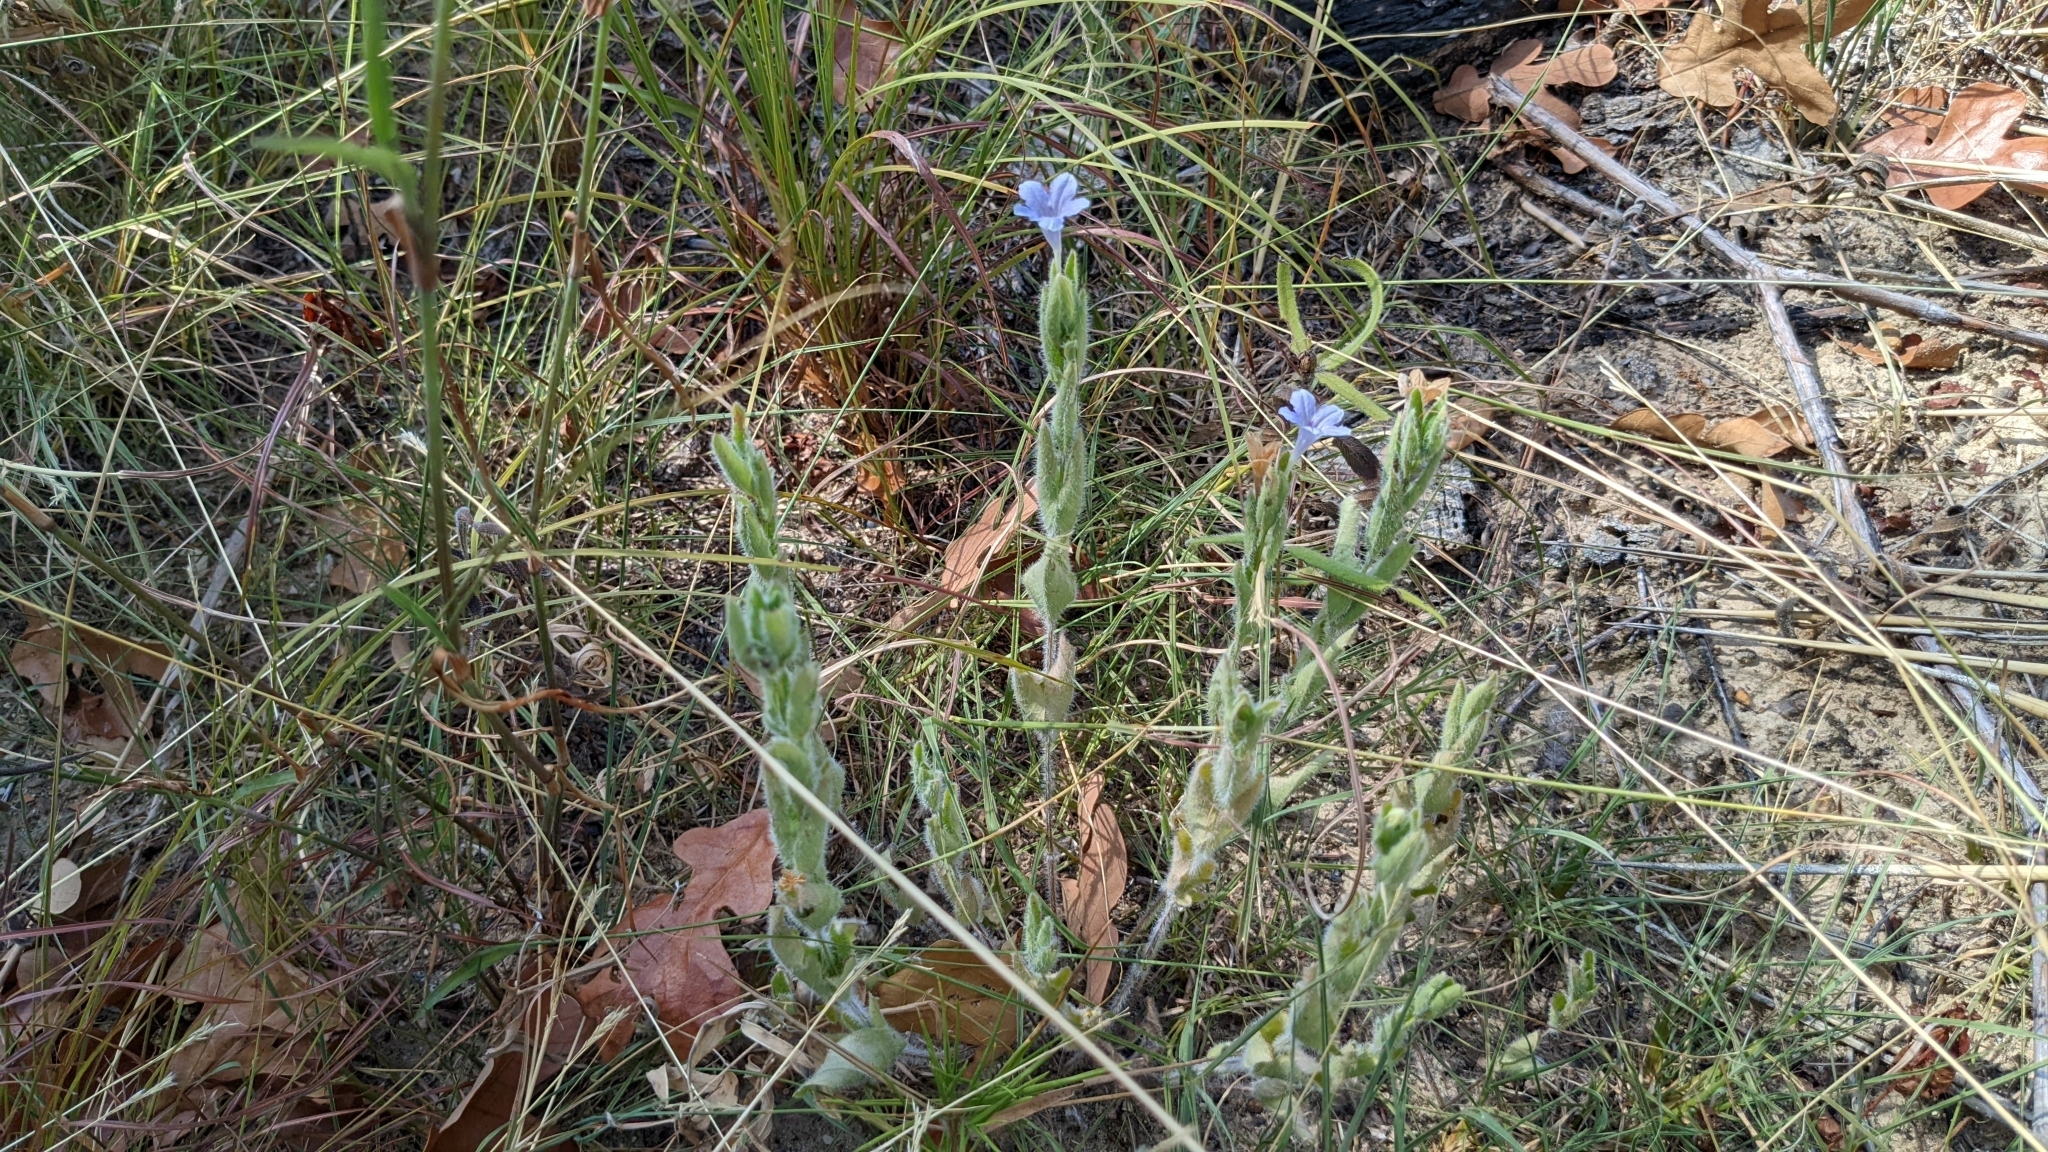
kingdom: Plantae
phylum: Tracheophyta
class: Magnoliopsida
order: Lamiales
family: Acanthaceae
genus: Ruellia
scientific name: Ruellia humilis
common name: Fringe-leaf ruellia
